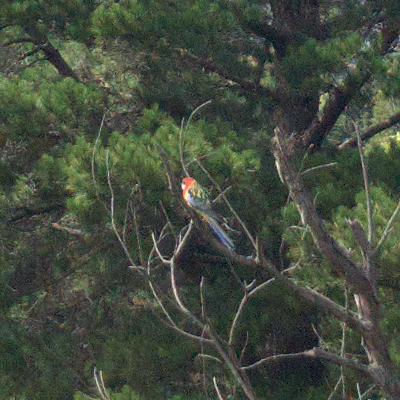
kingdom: Animalia
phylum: Chordata
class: Aves
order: Psittaciformes
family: Psittacidae
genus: Platycercus
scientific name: Platycercus eximius
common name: Eastern rosella
